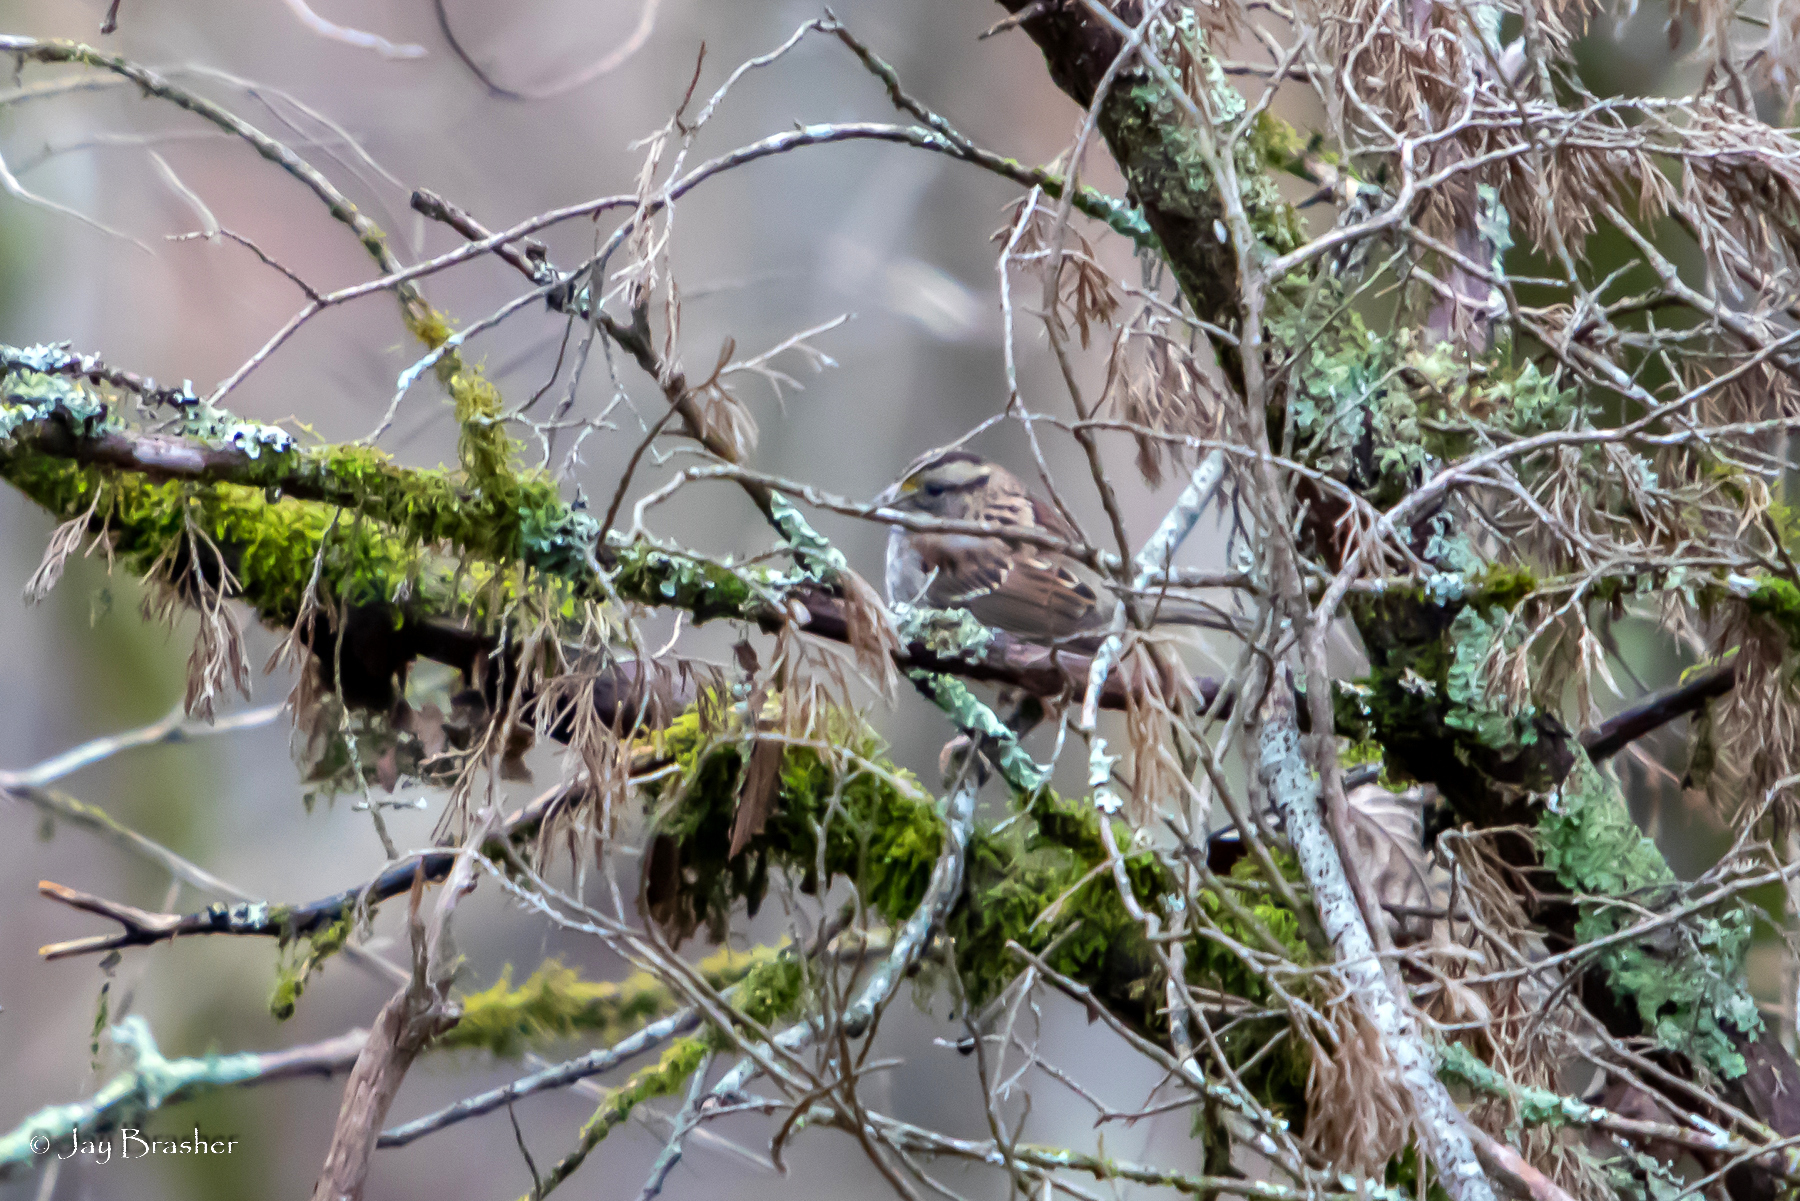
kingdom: Animalia
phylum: Chordata
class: Aves
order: Passeriformes
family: Passerellidae
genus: Zonotrichia
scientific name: Zonotrichia albicollis
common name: White-throated sparrow
